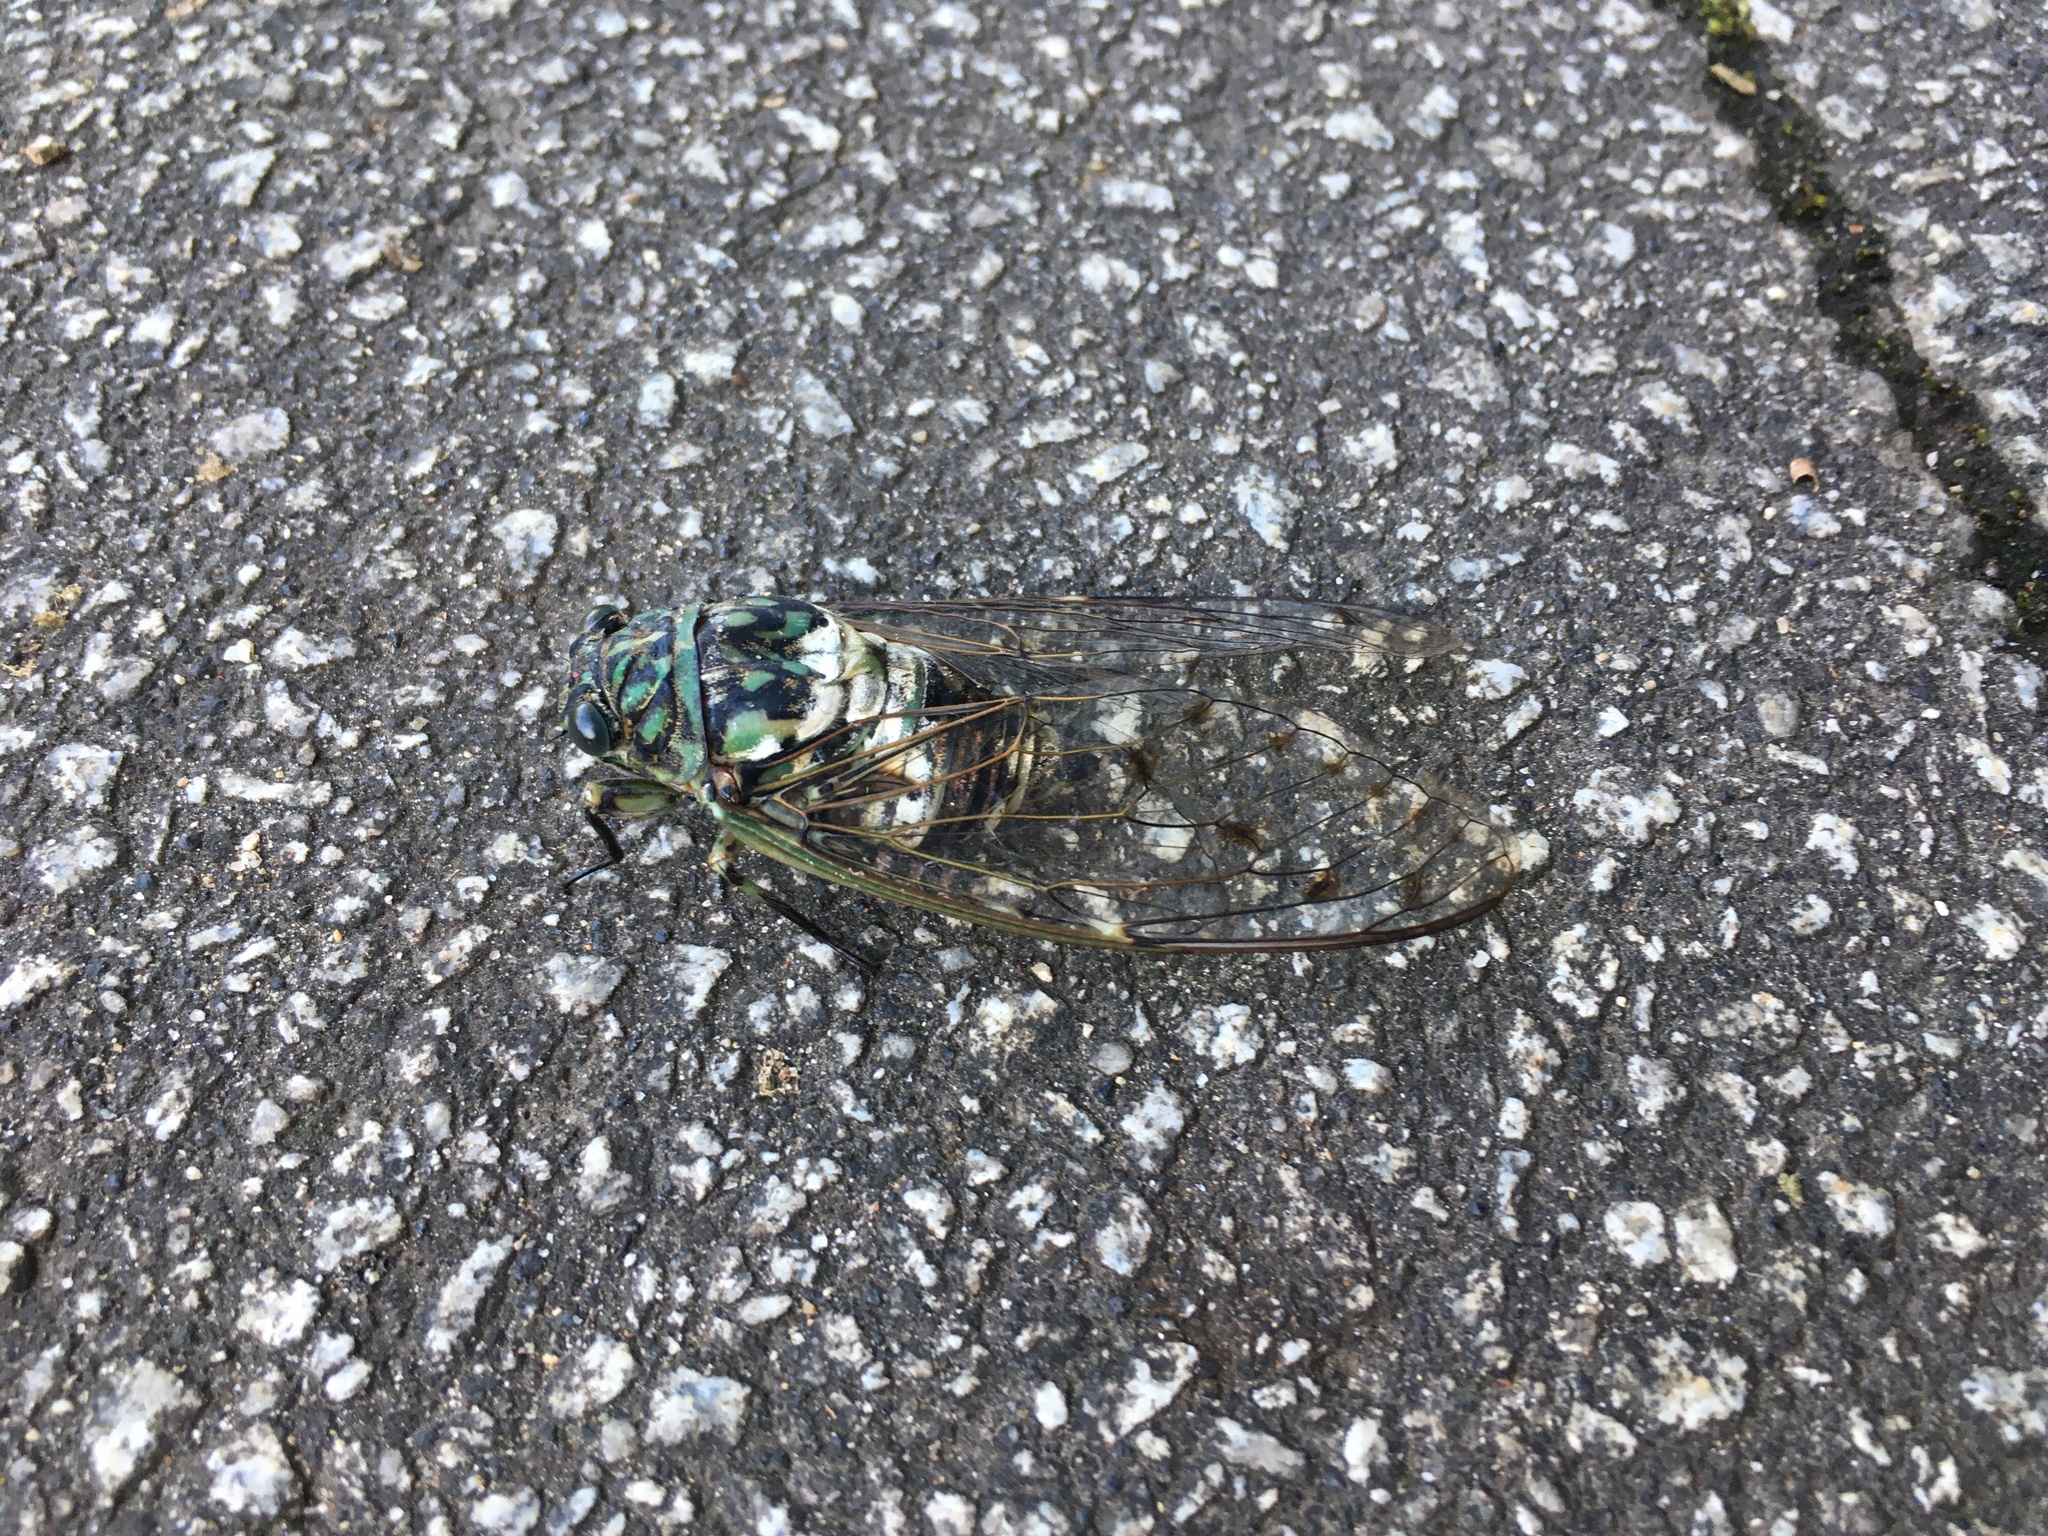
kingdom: Animalia
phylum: Arthropoda
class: Insecta
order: Hemiptera
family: Cicadidae
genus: Hyalessa
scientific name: Hyalessa maculaticollis
